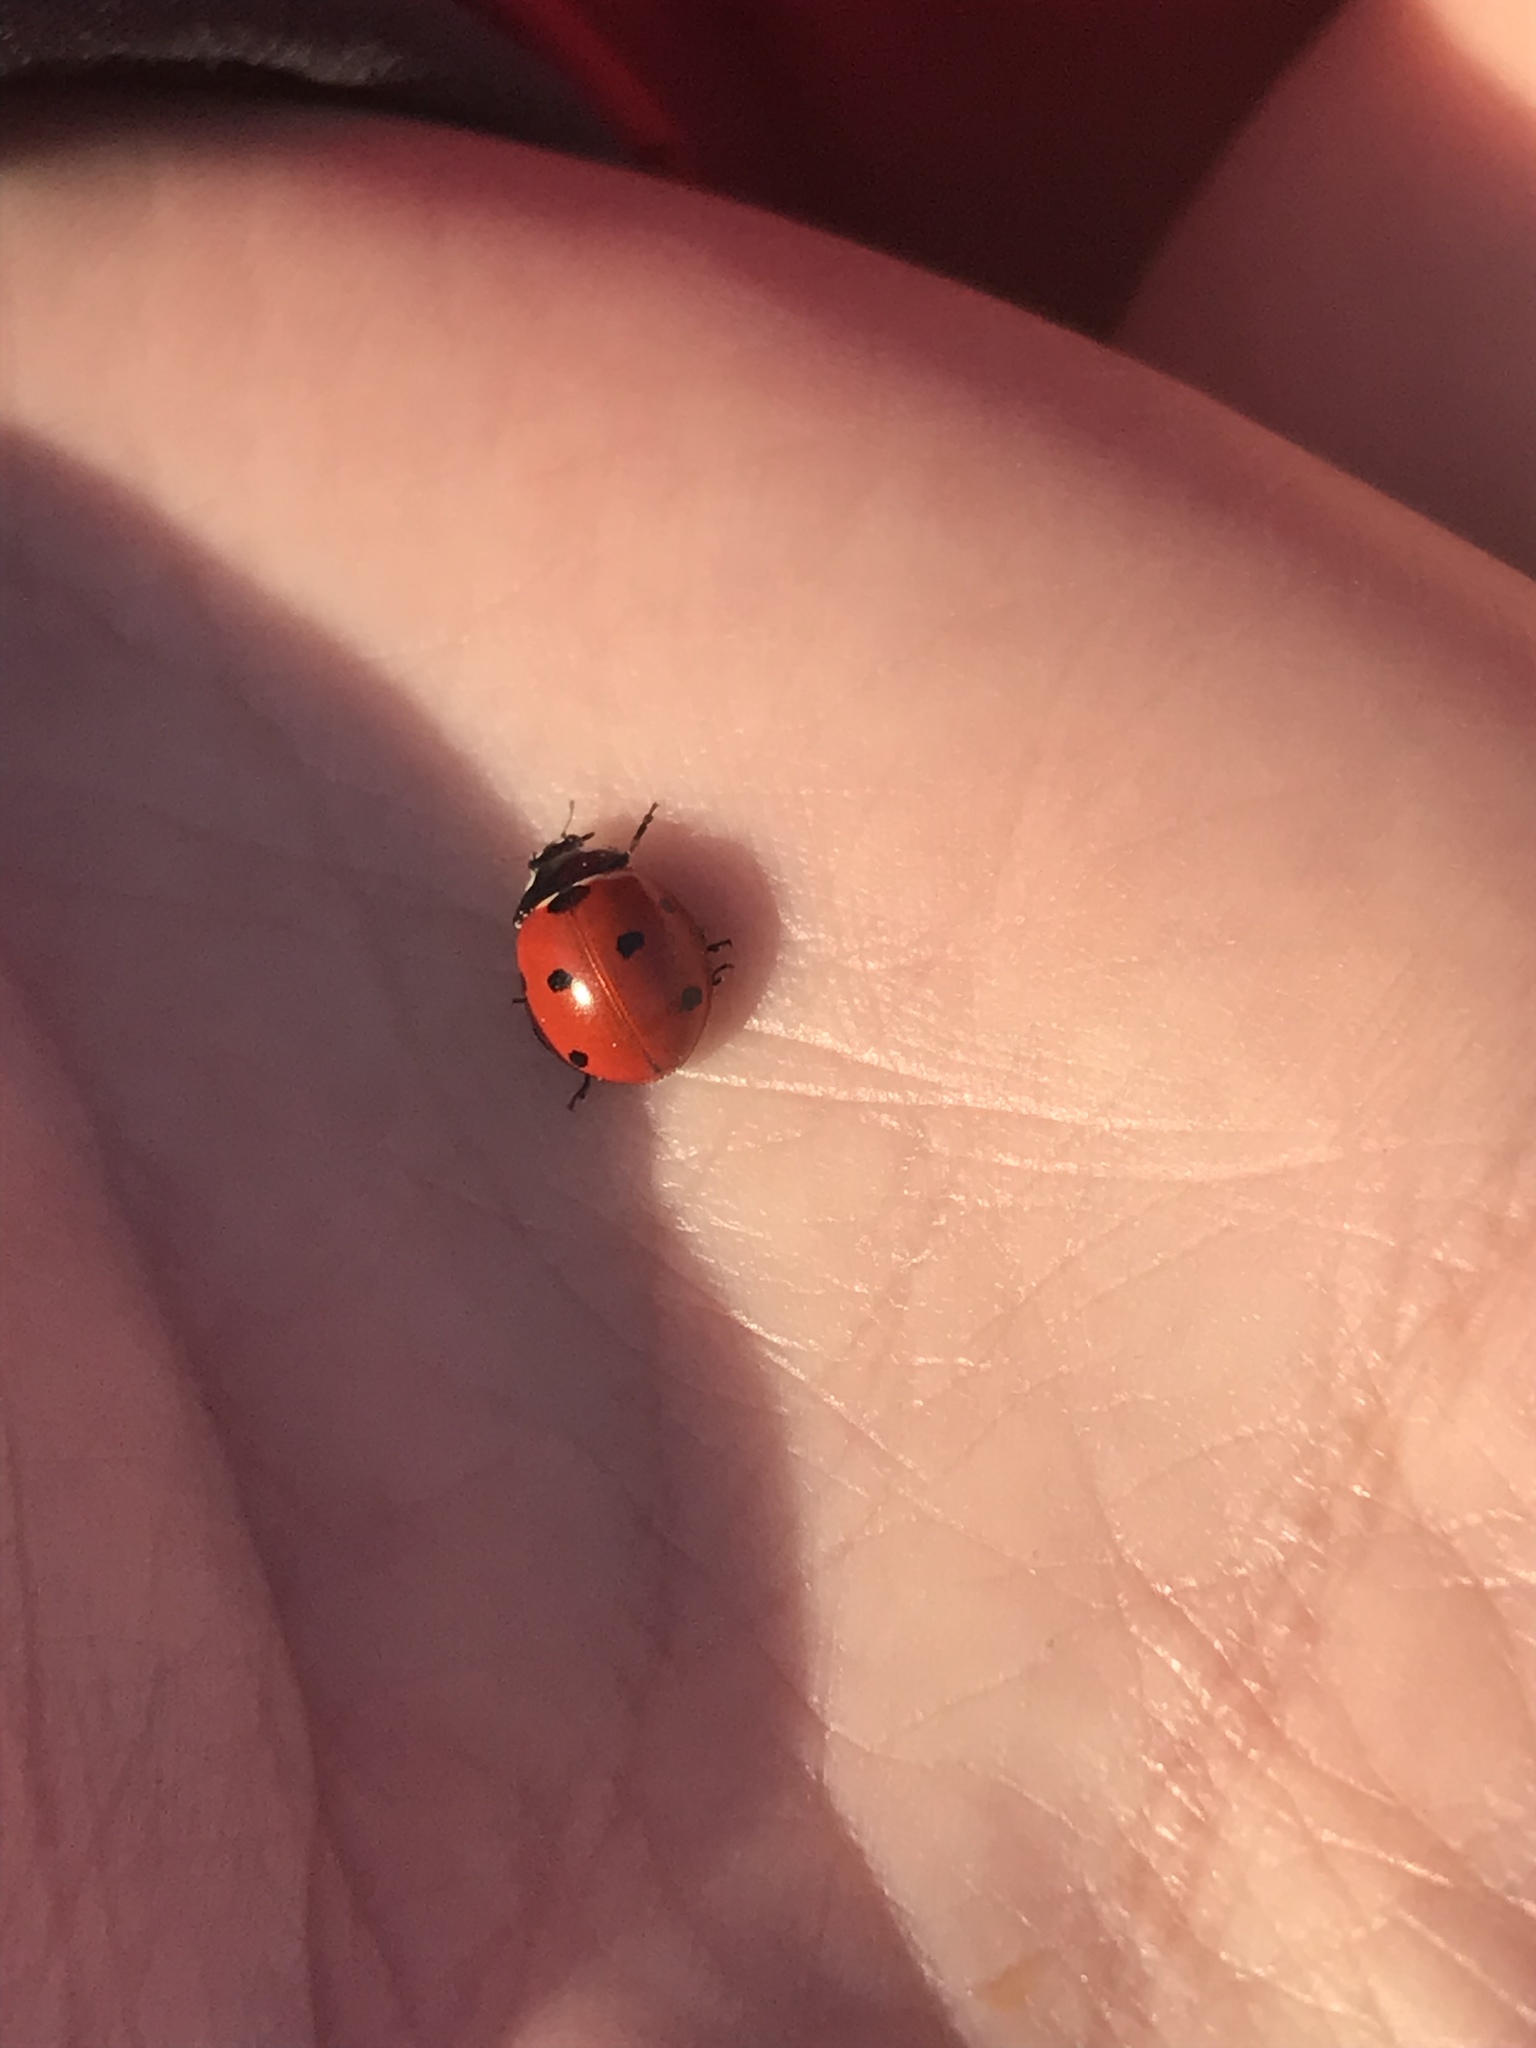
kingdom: Animalia
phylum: Arthropoda
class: Insecta
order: Coleoptera
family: Coccinellidae
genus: Coccinella
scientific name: Coccinella septempunctata
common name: Sevenspotted lady beetle
